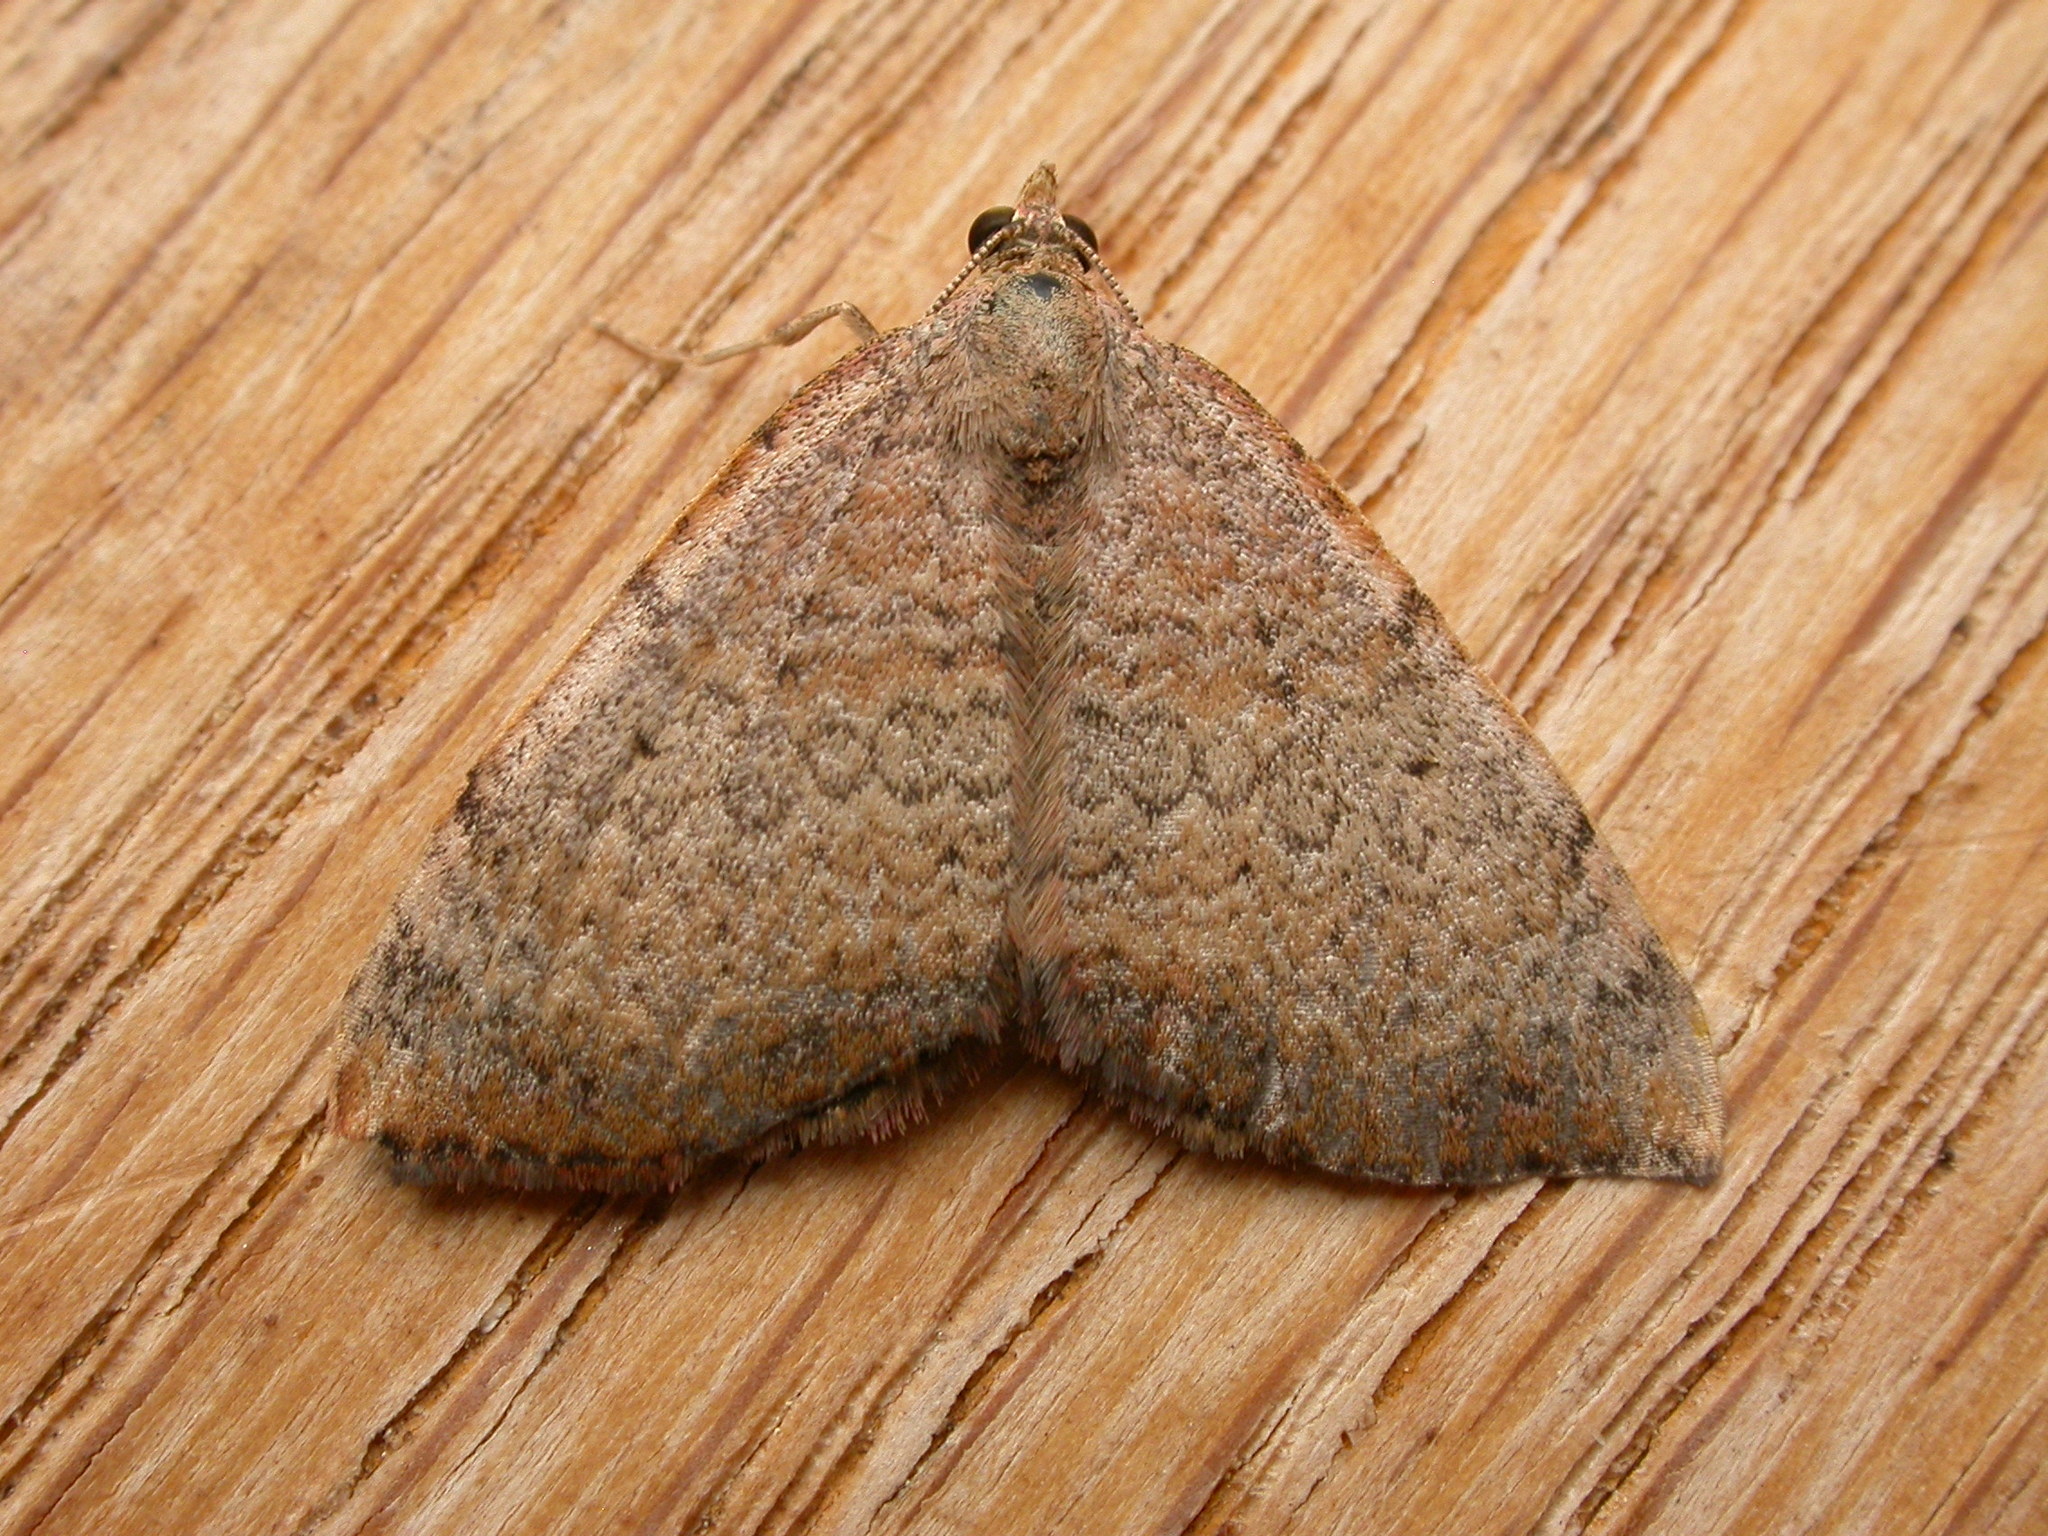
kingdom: Animalia
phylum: Arthropoda
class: Insecta
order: Lepidoptera
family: Geometridae
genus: Chrysolarentia
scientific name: Chrysolarentia mecynata
